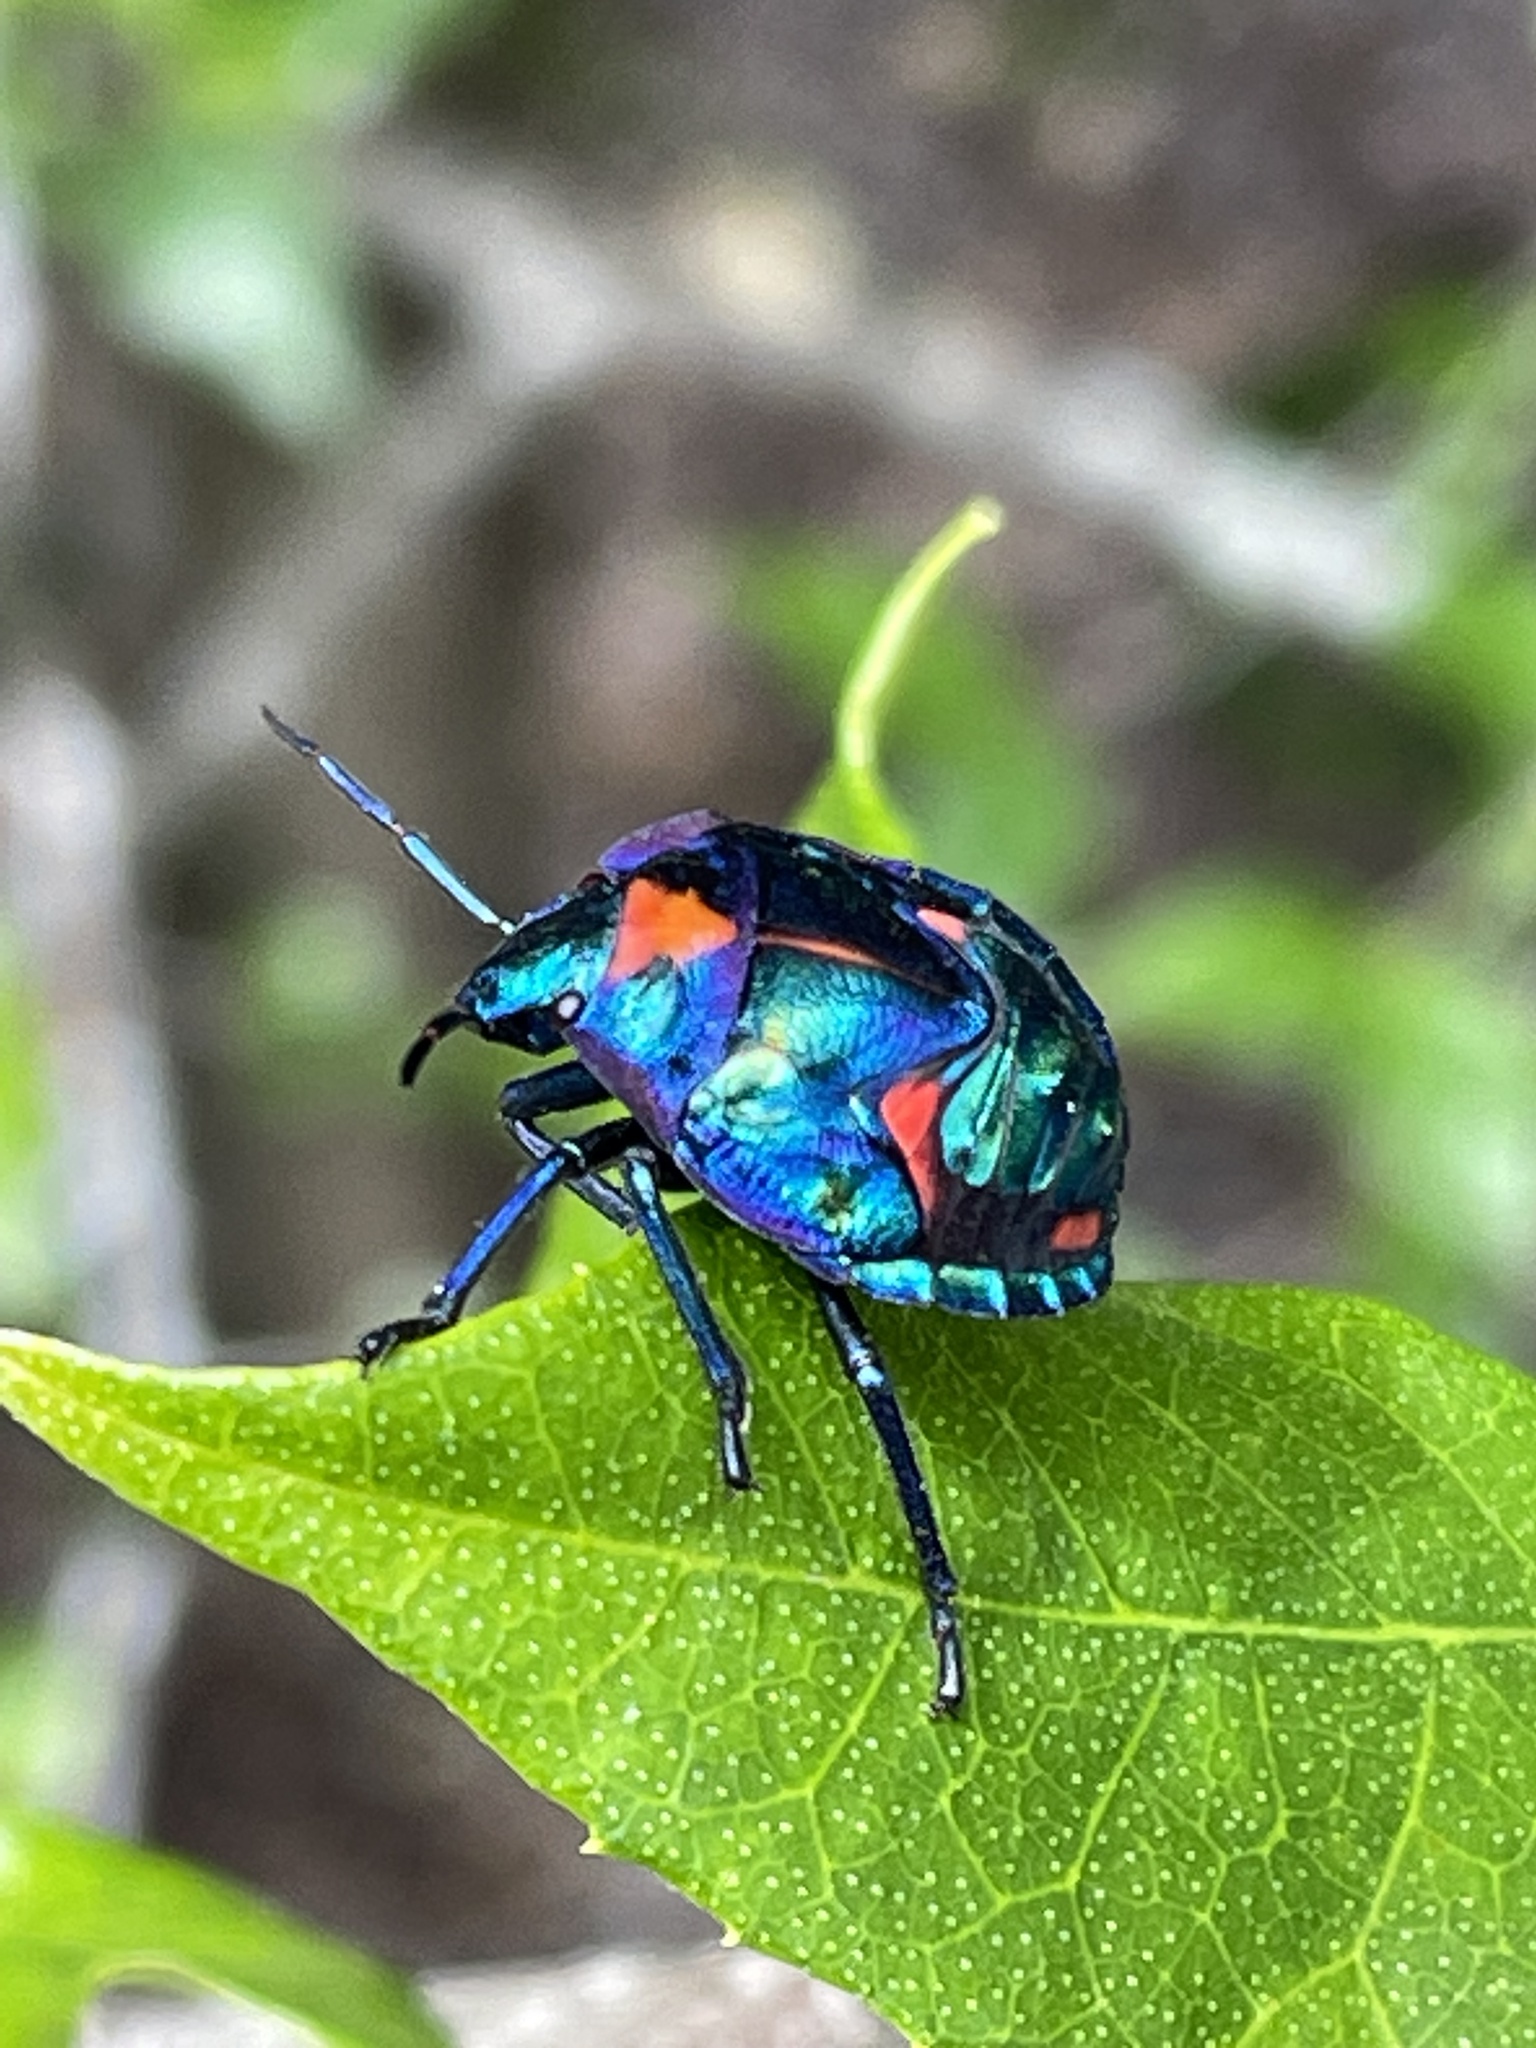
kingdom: Animalia
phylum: Arthropoda
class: Insecta
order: Hemiptera
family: Scutelleridae
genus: Tectocoris
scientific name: Tectocoris diophthalmus
